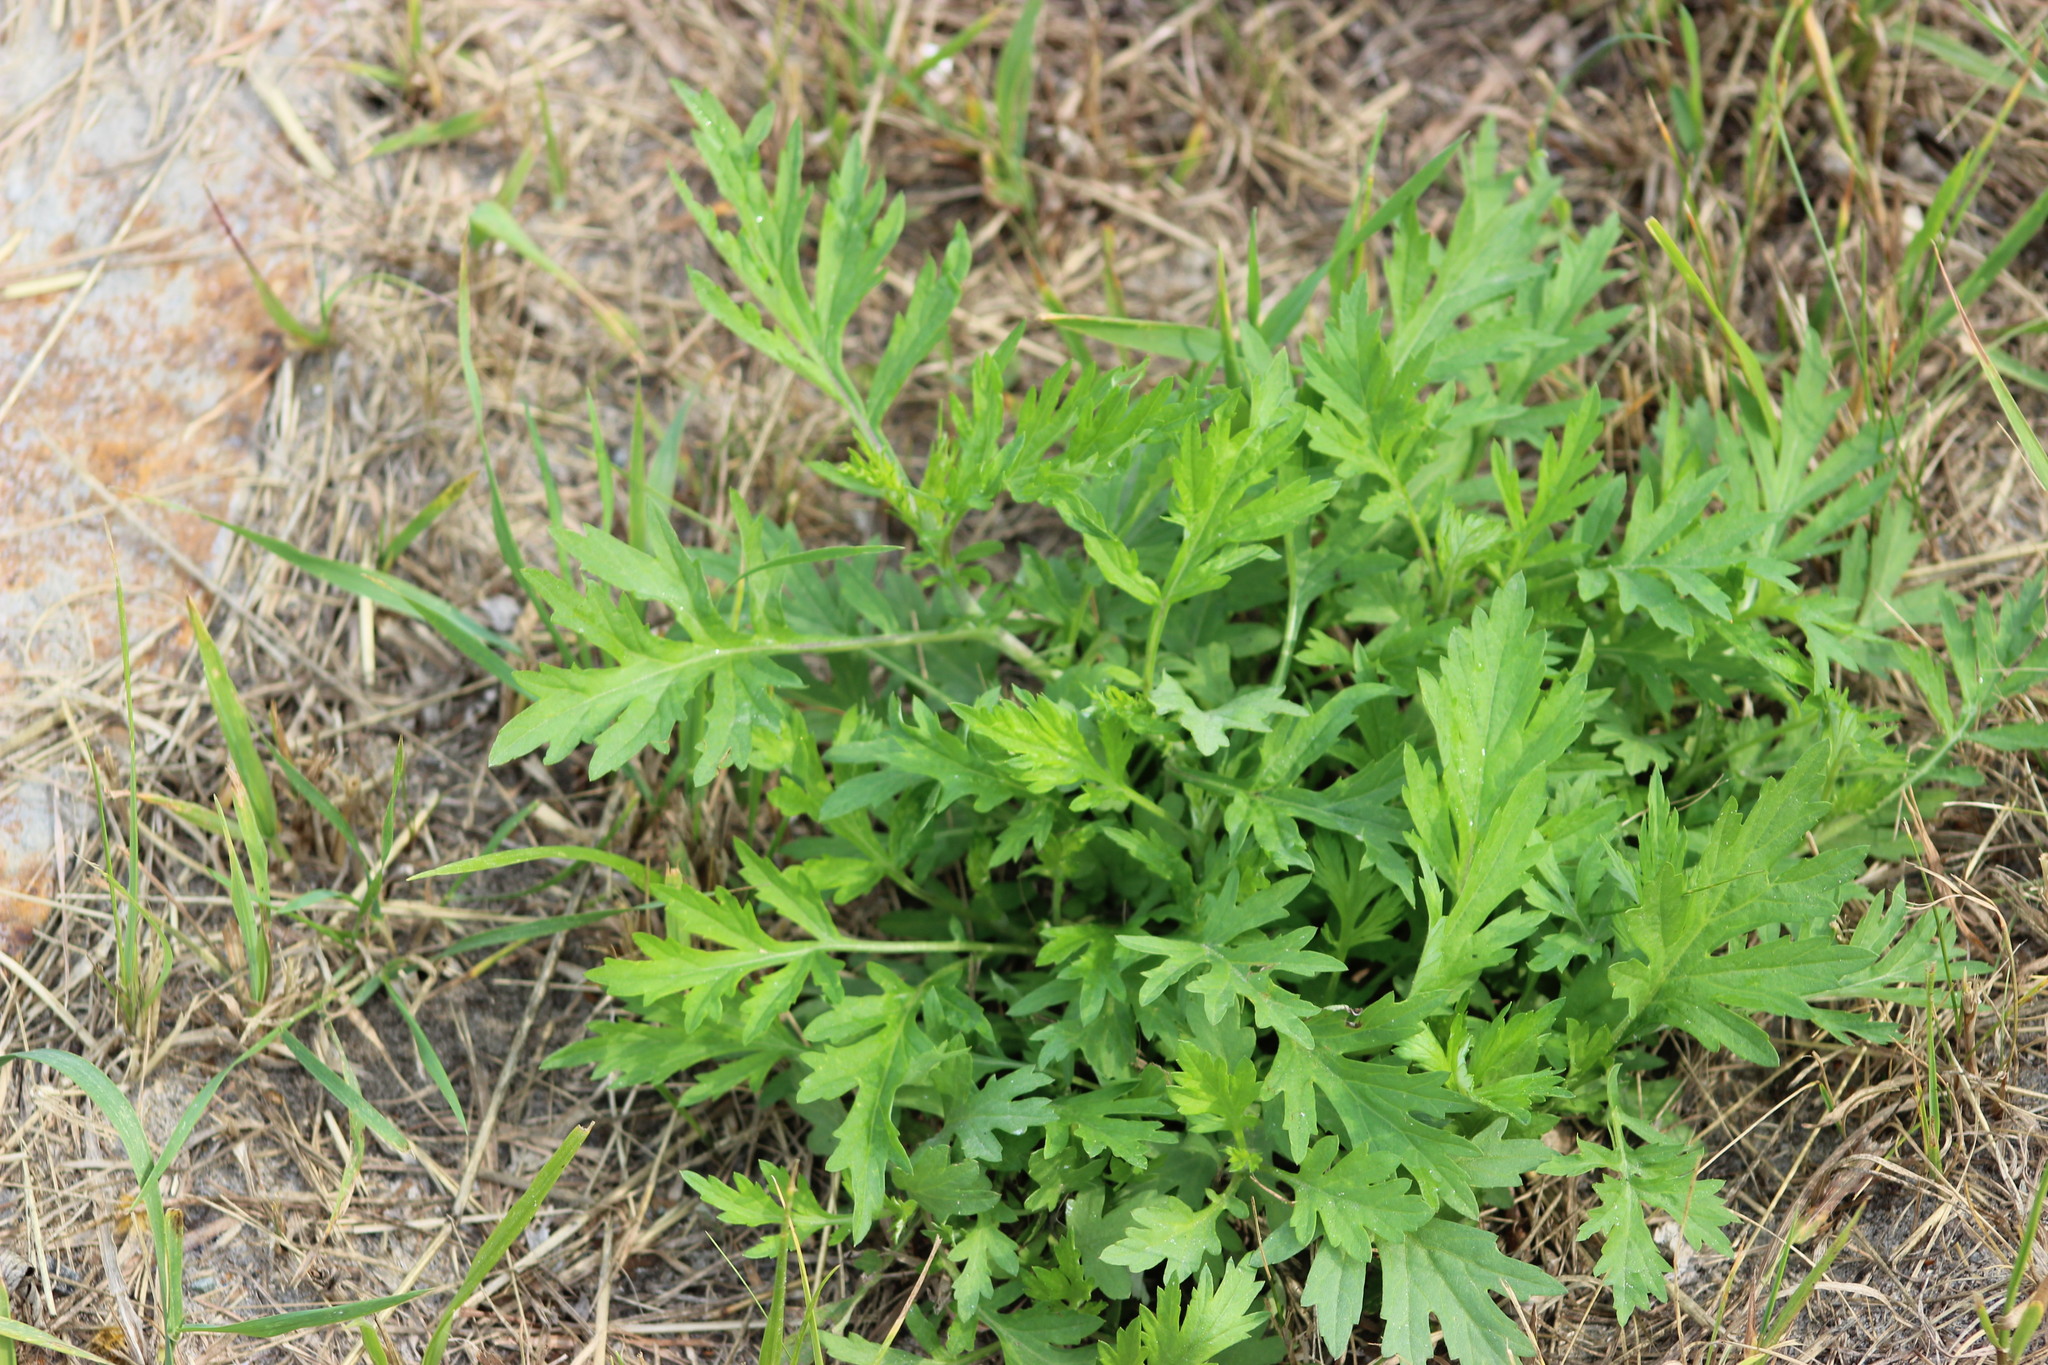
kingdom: Plantae
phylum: Tracheophyta
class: Magnoliopsida
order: Asterales
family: Asteraceae
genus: Artemisia
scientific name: Artemisia vulgaris
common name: Mugwort
